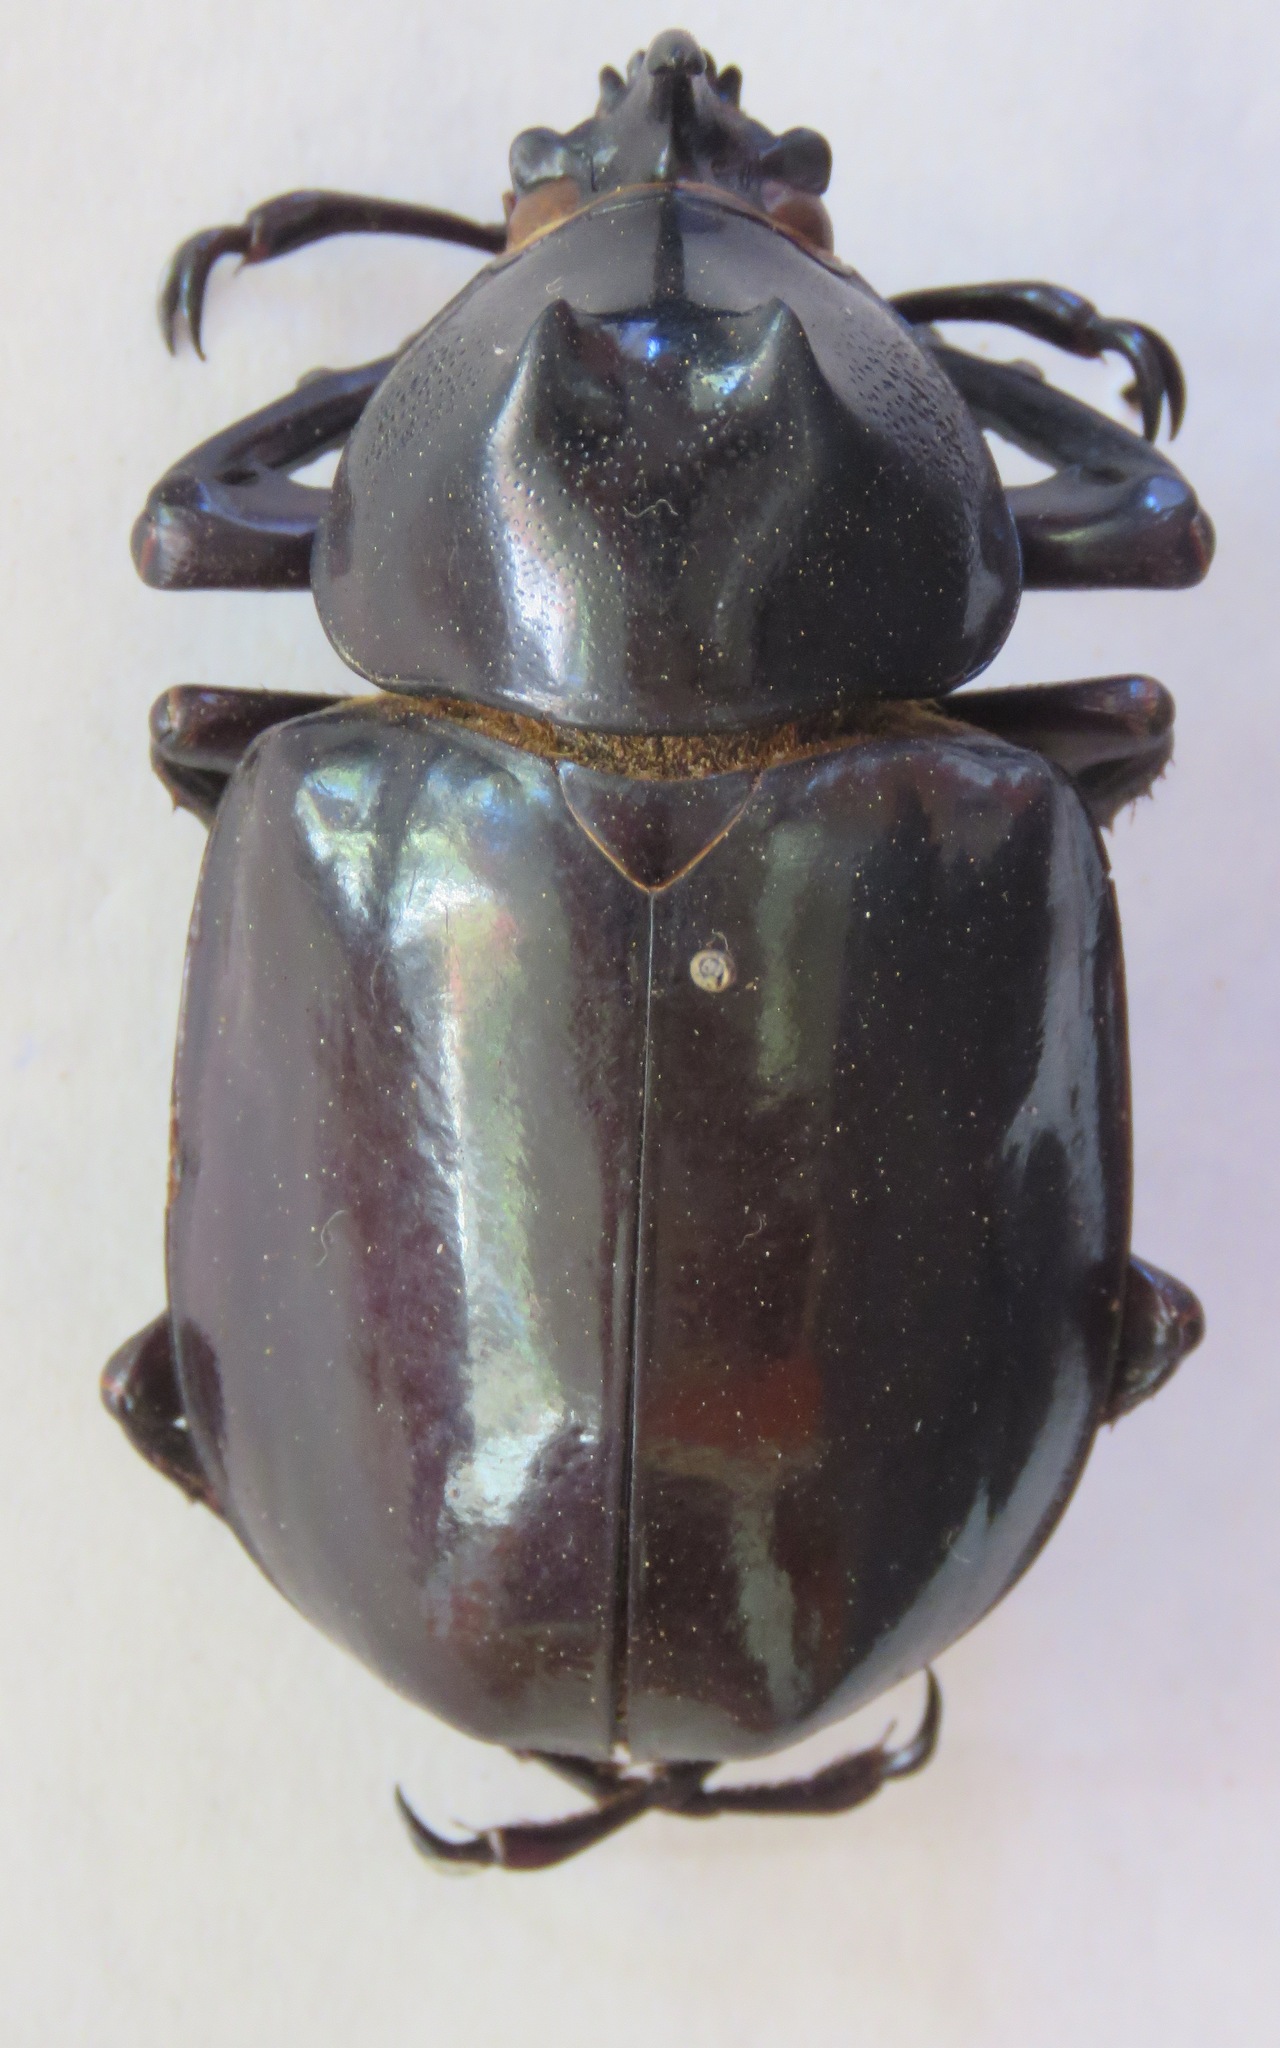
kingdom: Animalia
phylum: Arthropoda
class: Insecta
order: Coleoptera
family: Scarabaeidae
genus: Chalcosoma
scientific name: Chalcosoma chiron
